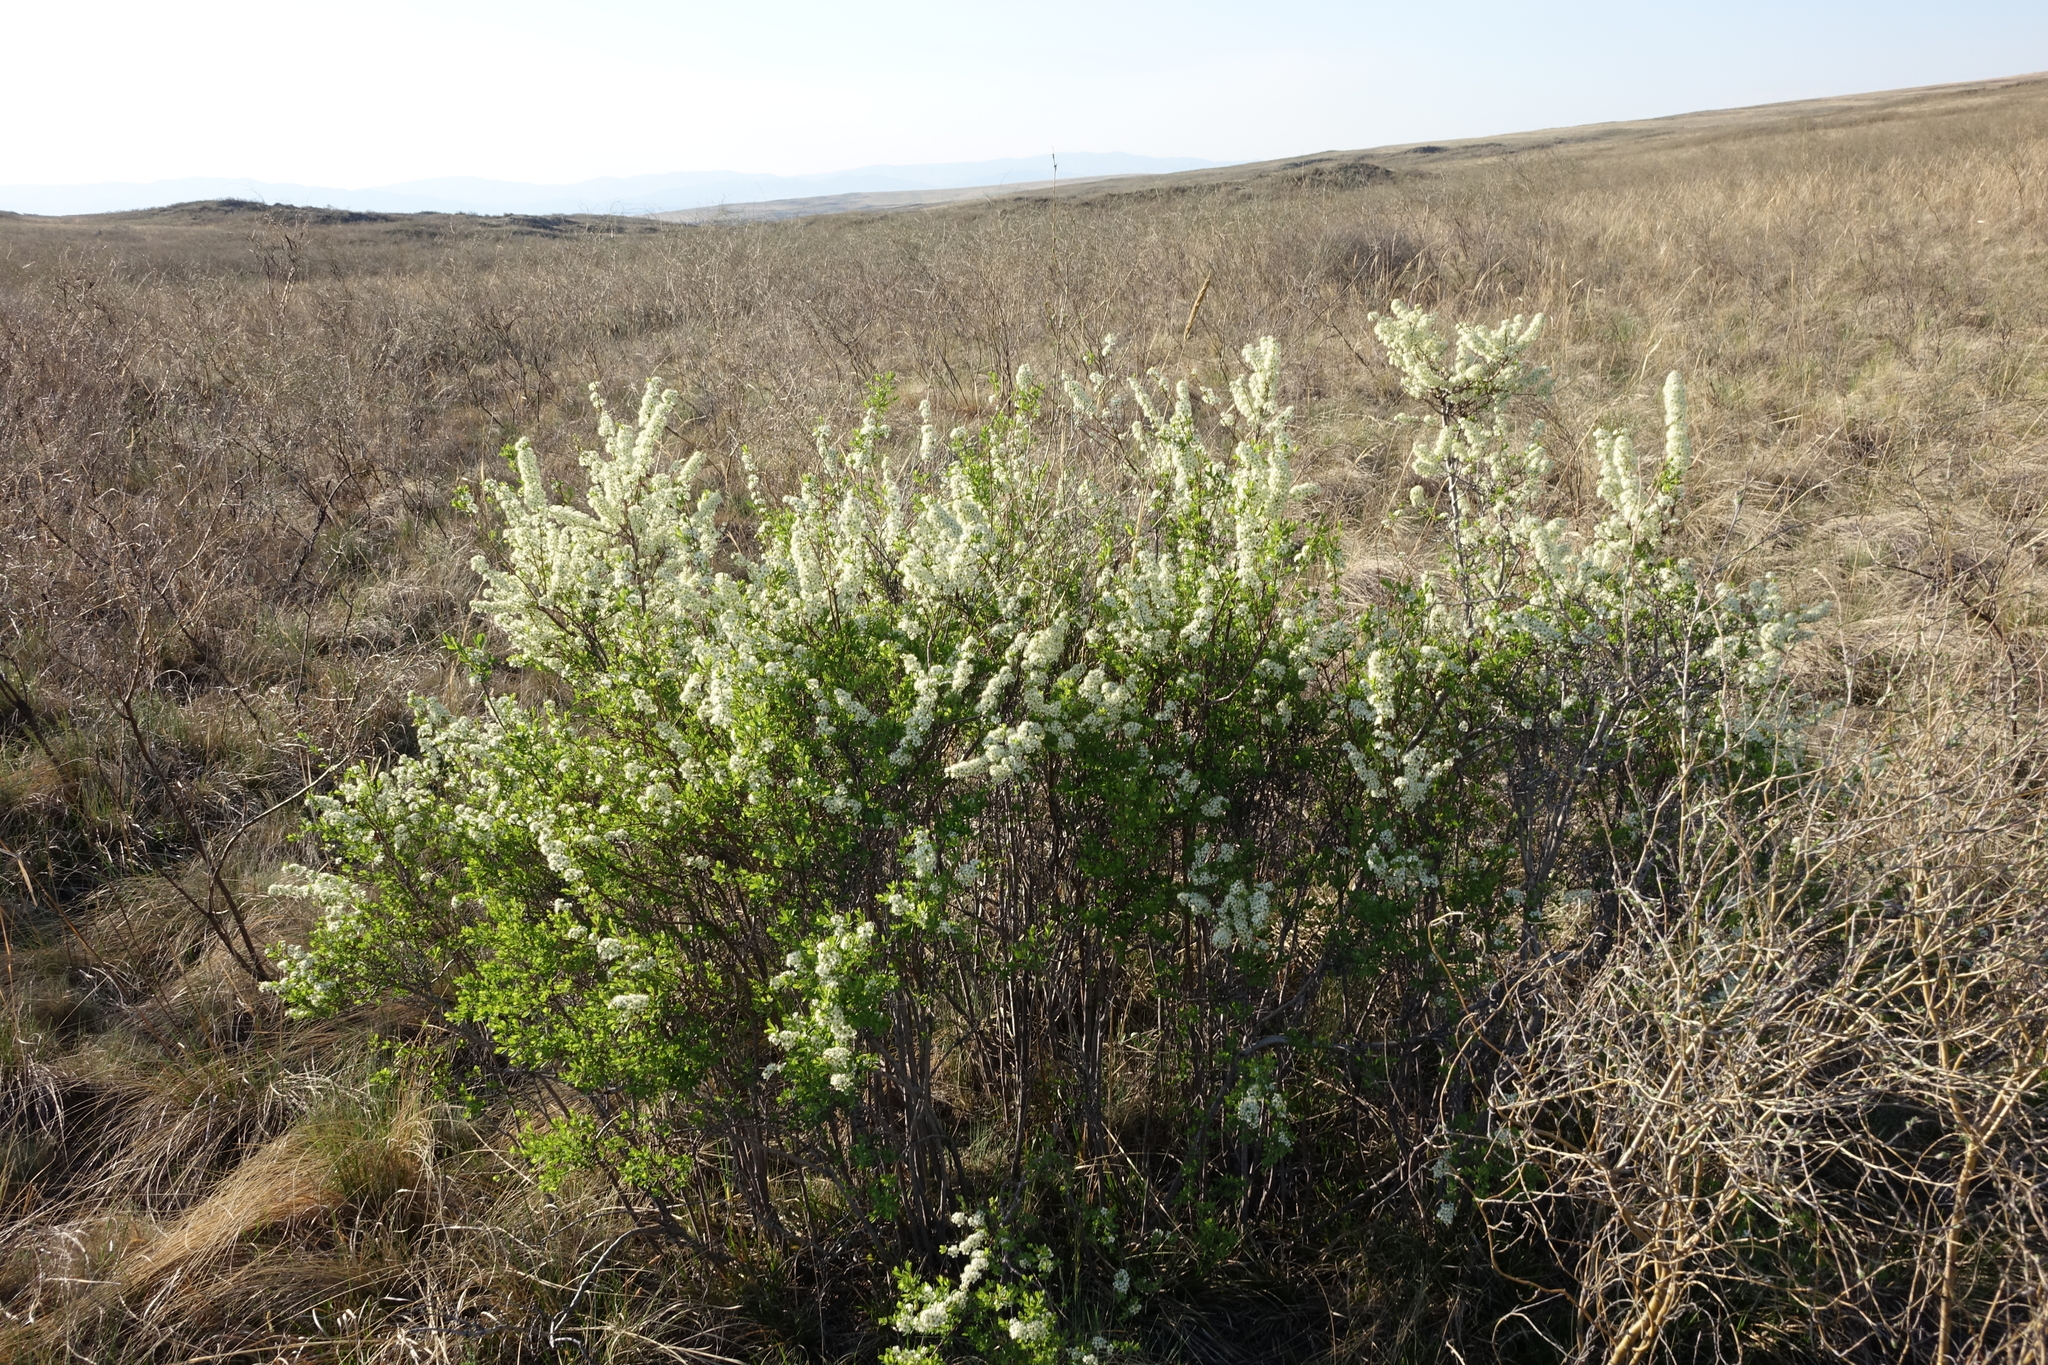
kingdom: Plantae
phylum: Tracheophyta
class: Magnoliopsida
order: Rosales
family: Rosaceae
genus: Spiraea
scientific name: Spiraea hypericifolia
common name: Iberian spirea
